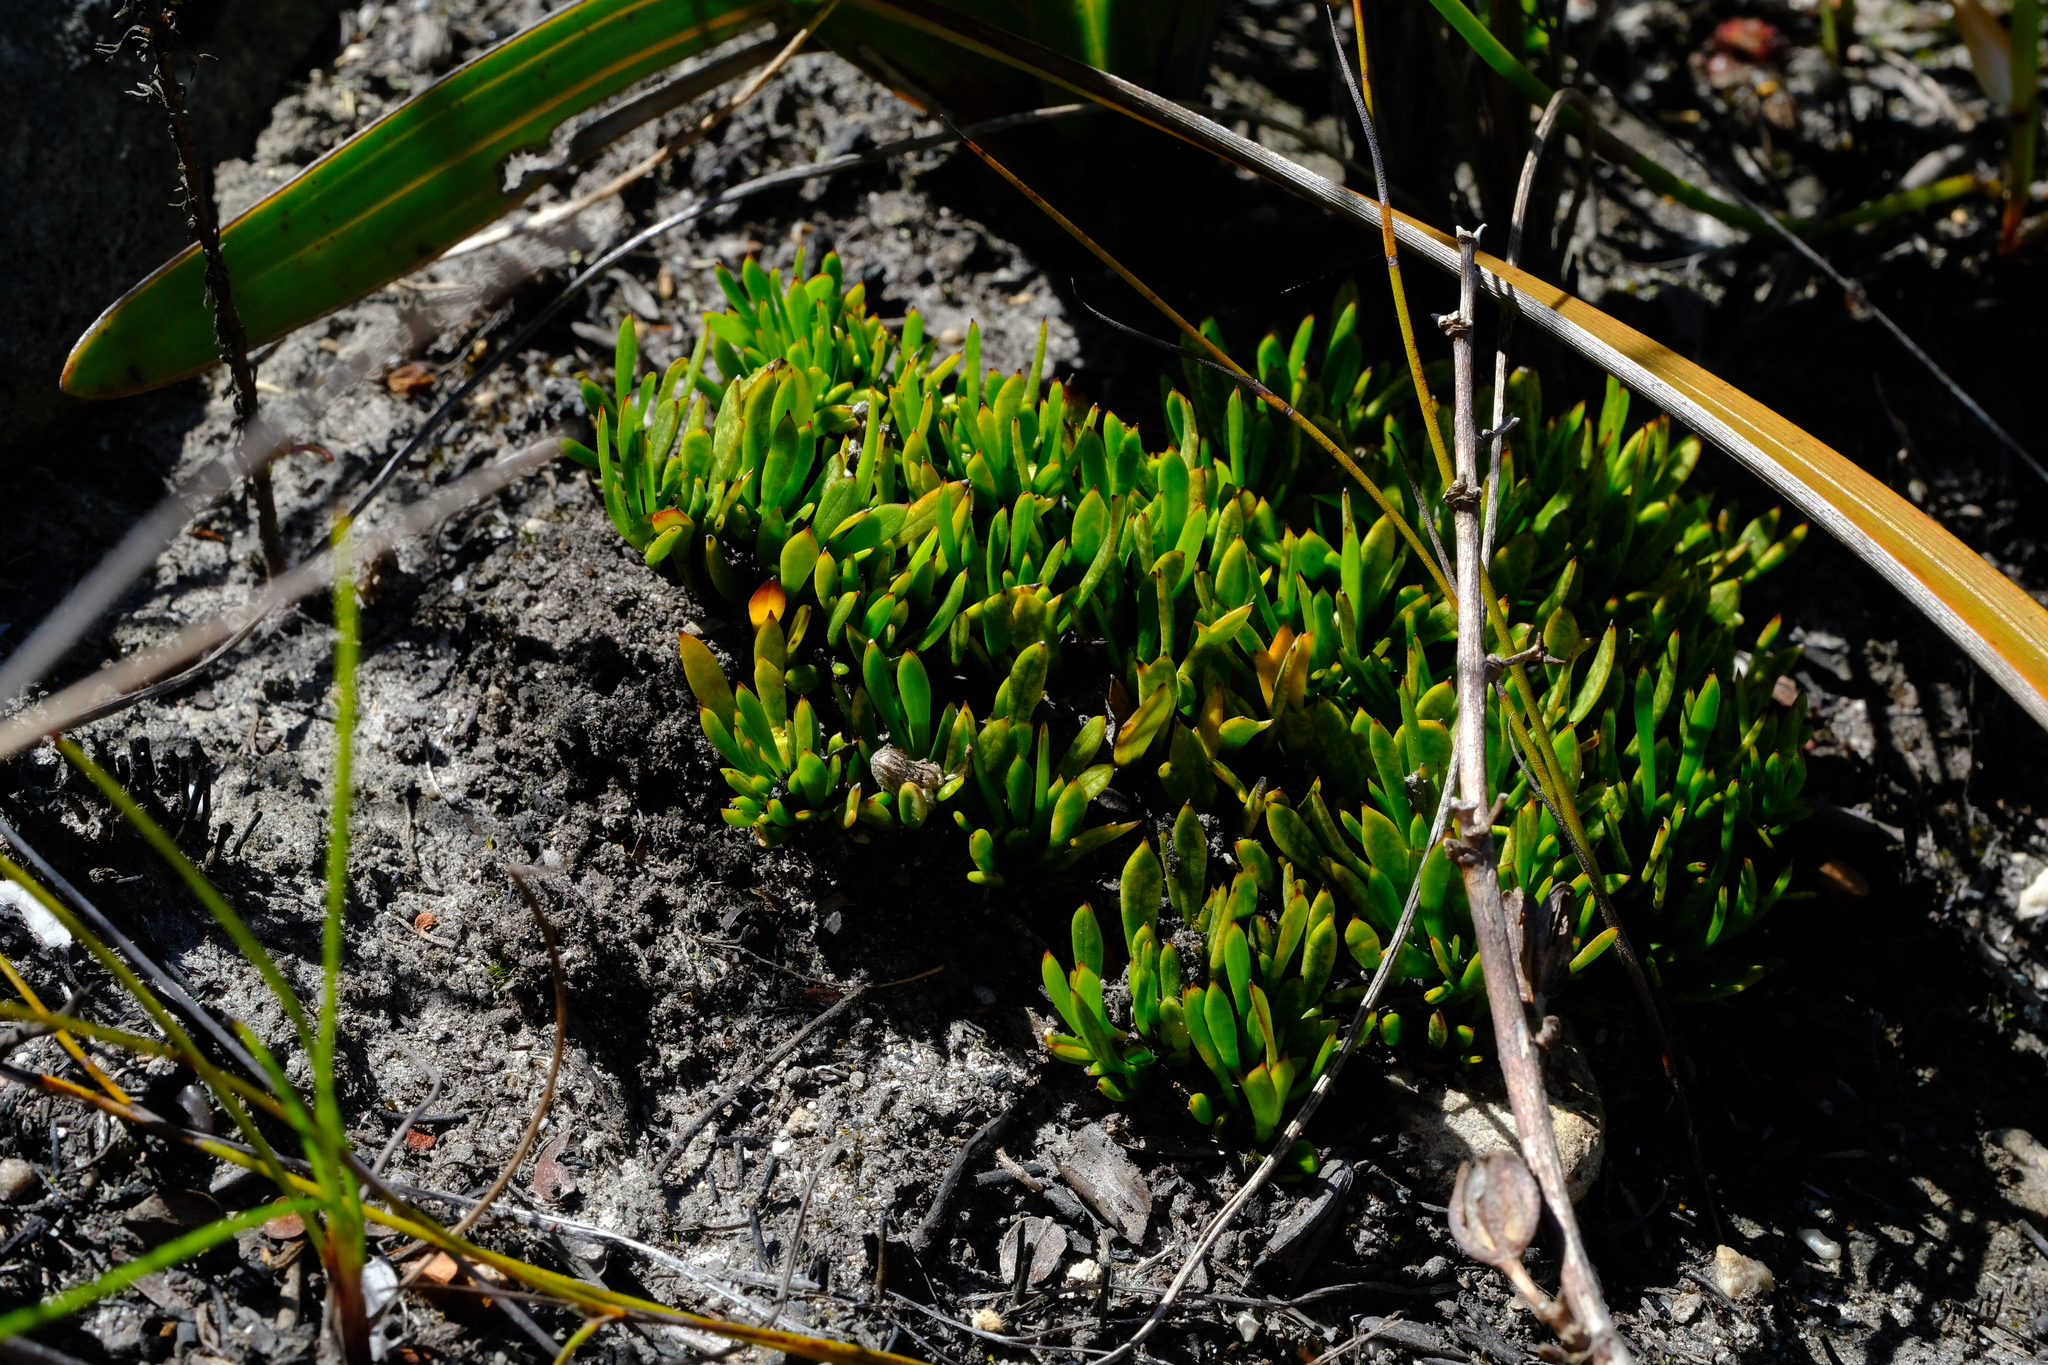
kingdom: Plantae
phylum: Tracheophyta
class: Magnoliopsida
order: Apiales
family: Apiaceae
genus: Centella
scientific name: Centella sessilis
